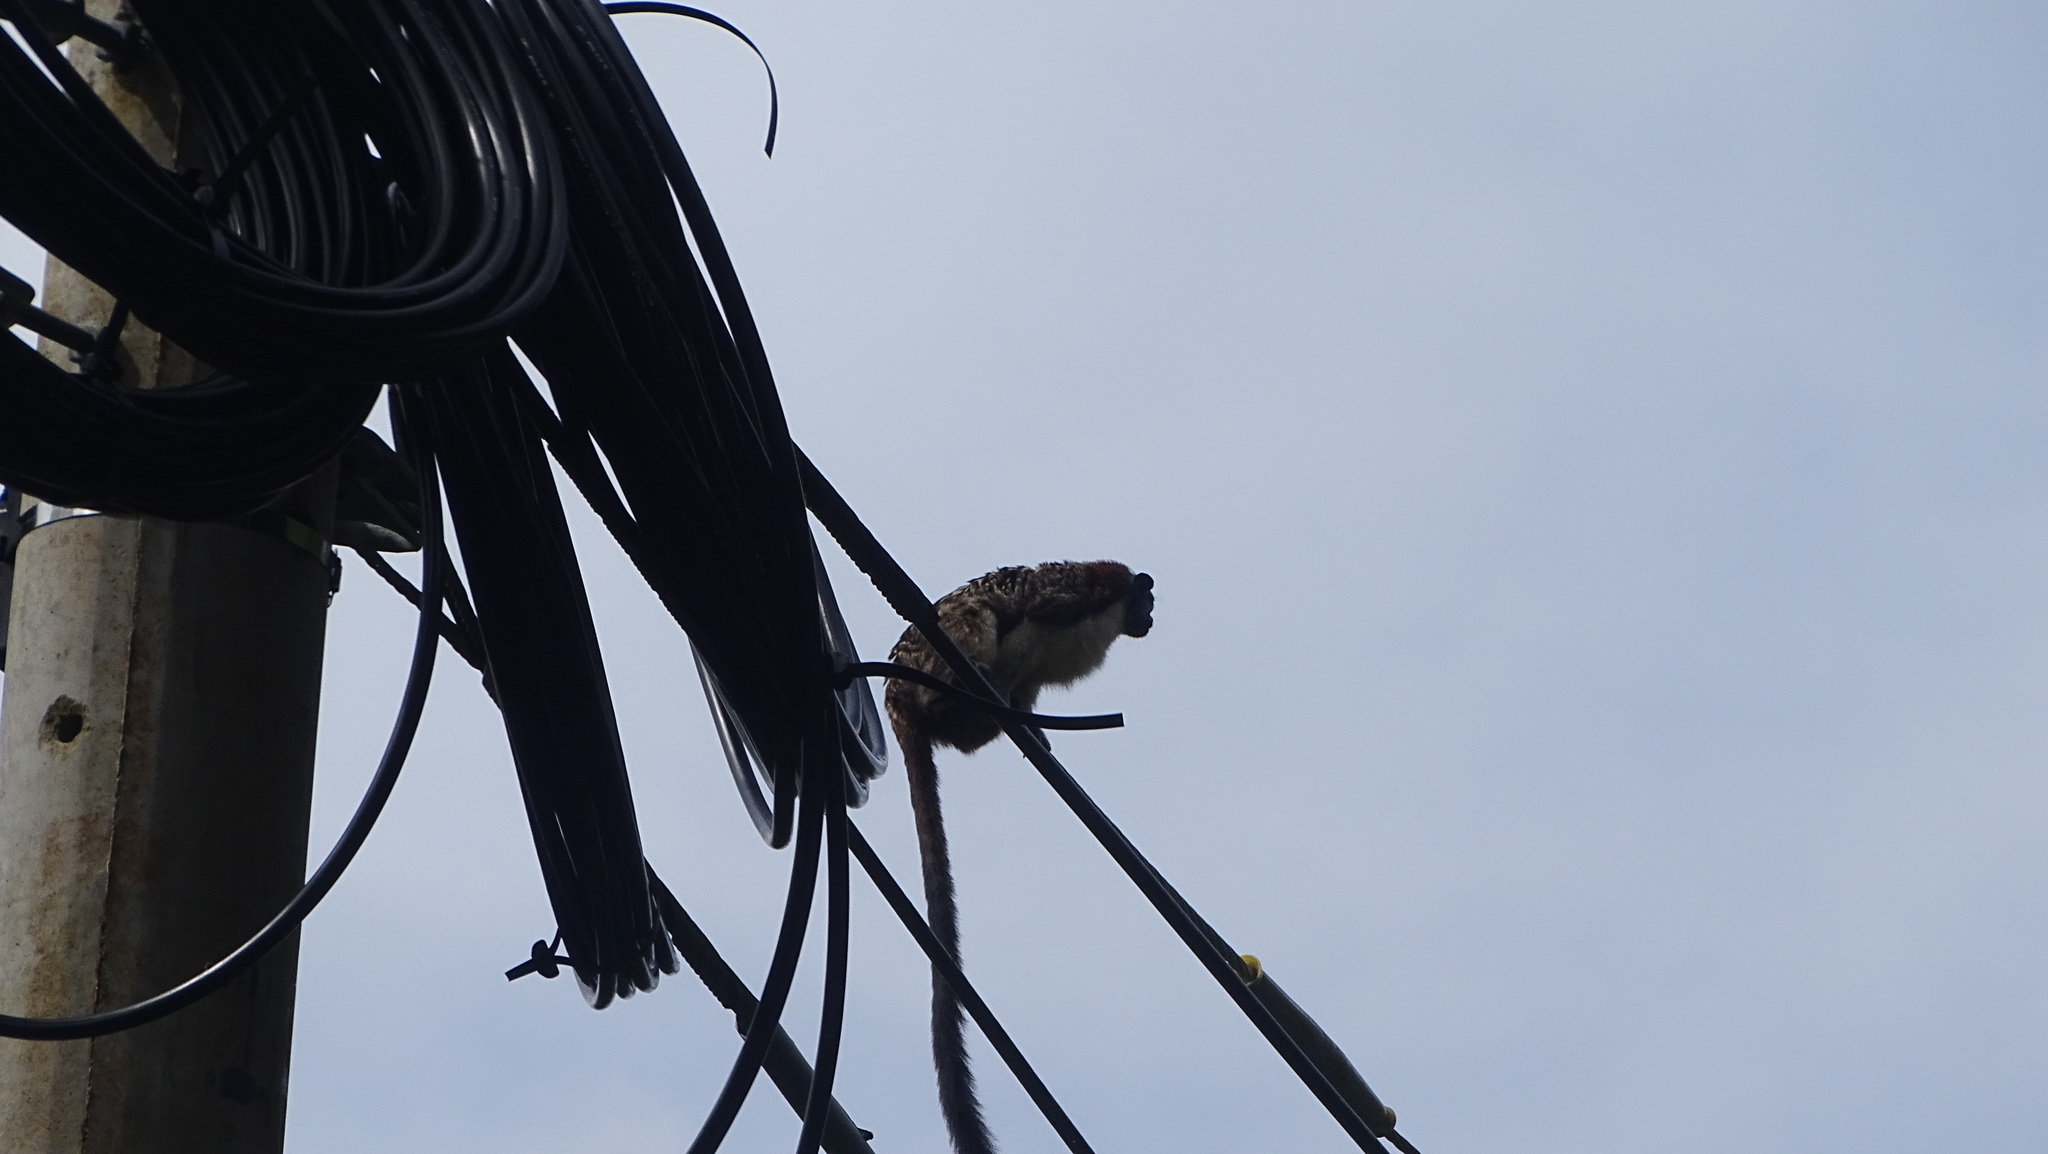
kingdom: Animalia
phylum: Chordata
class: Mammalia
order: Primates
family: Callitrichidae
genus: Saguinus
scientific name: Saguinus geoffroyi
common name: Geoffroy s tamarin
